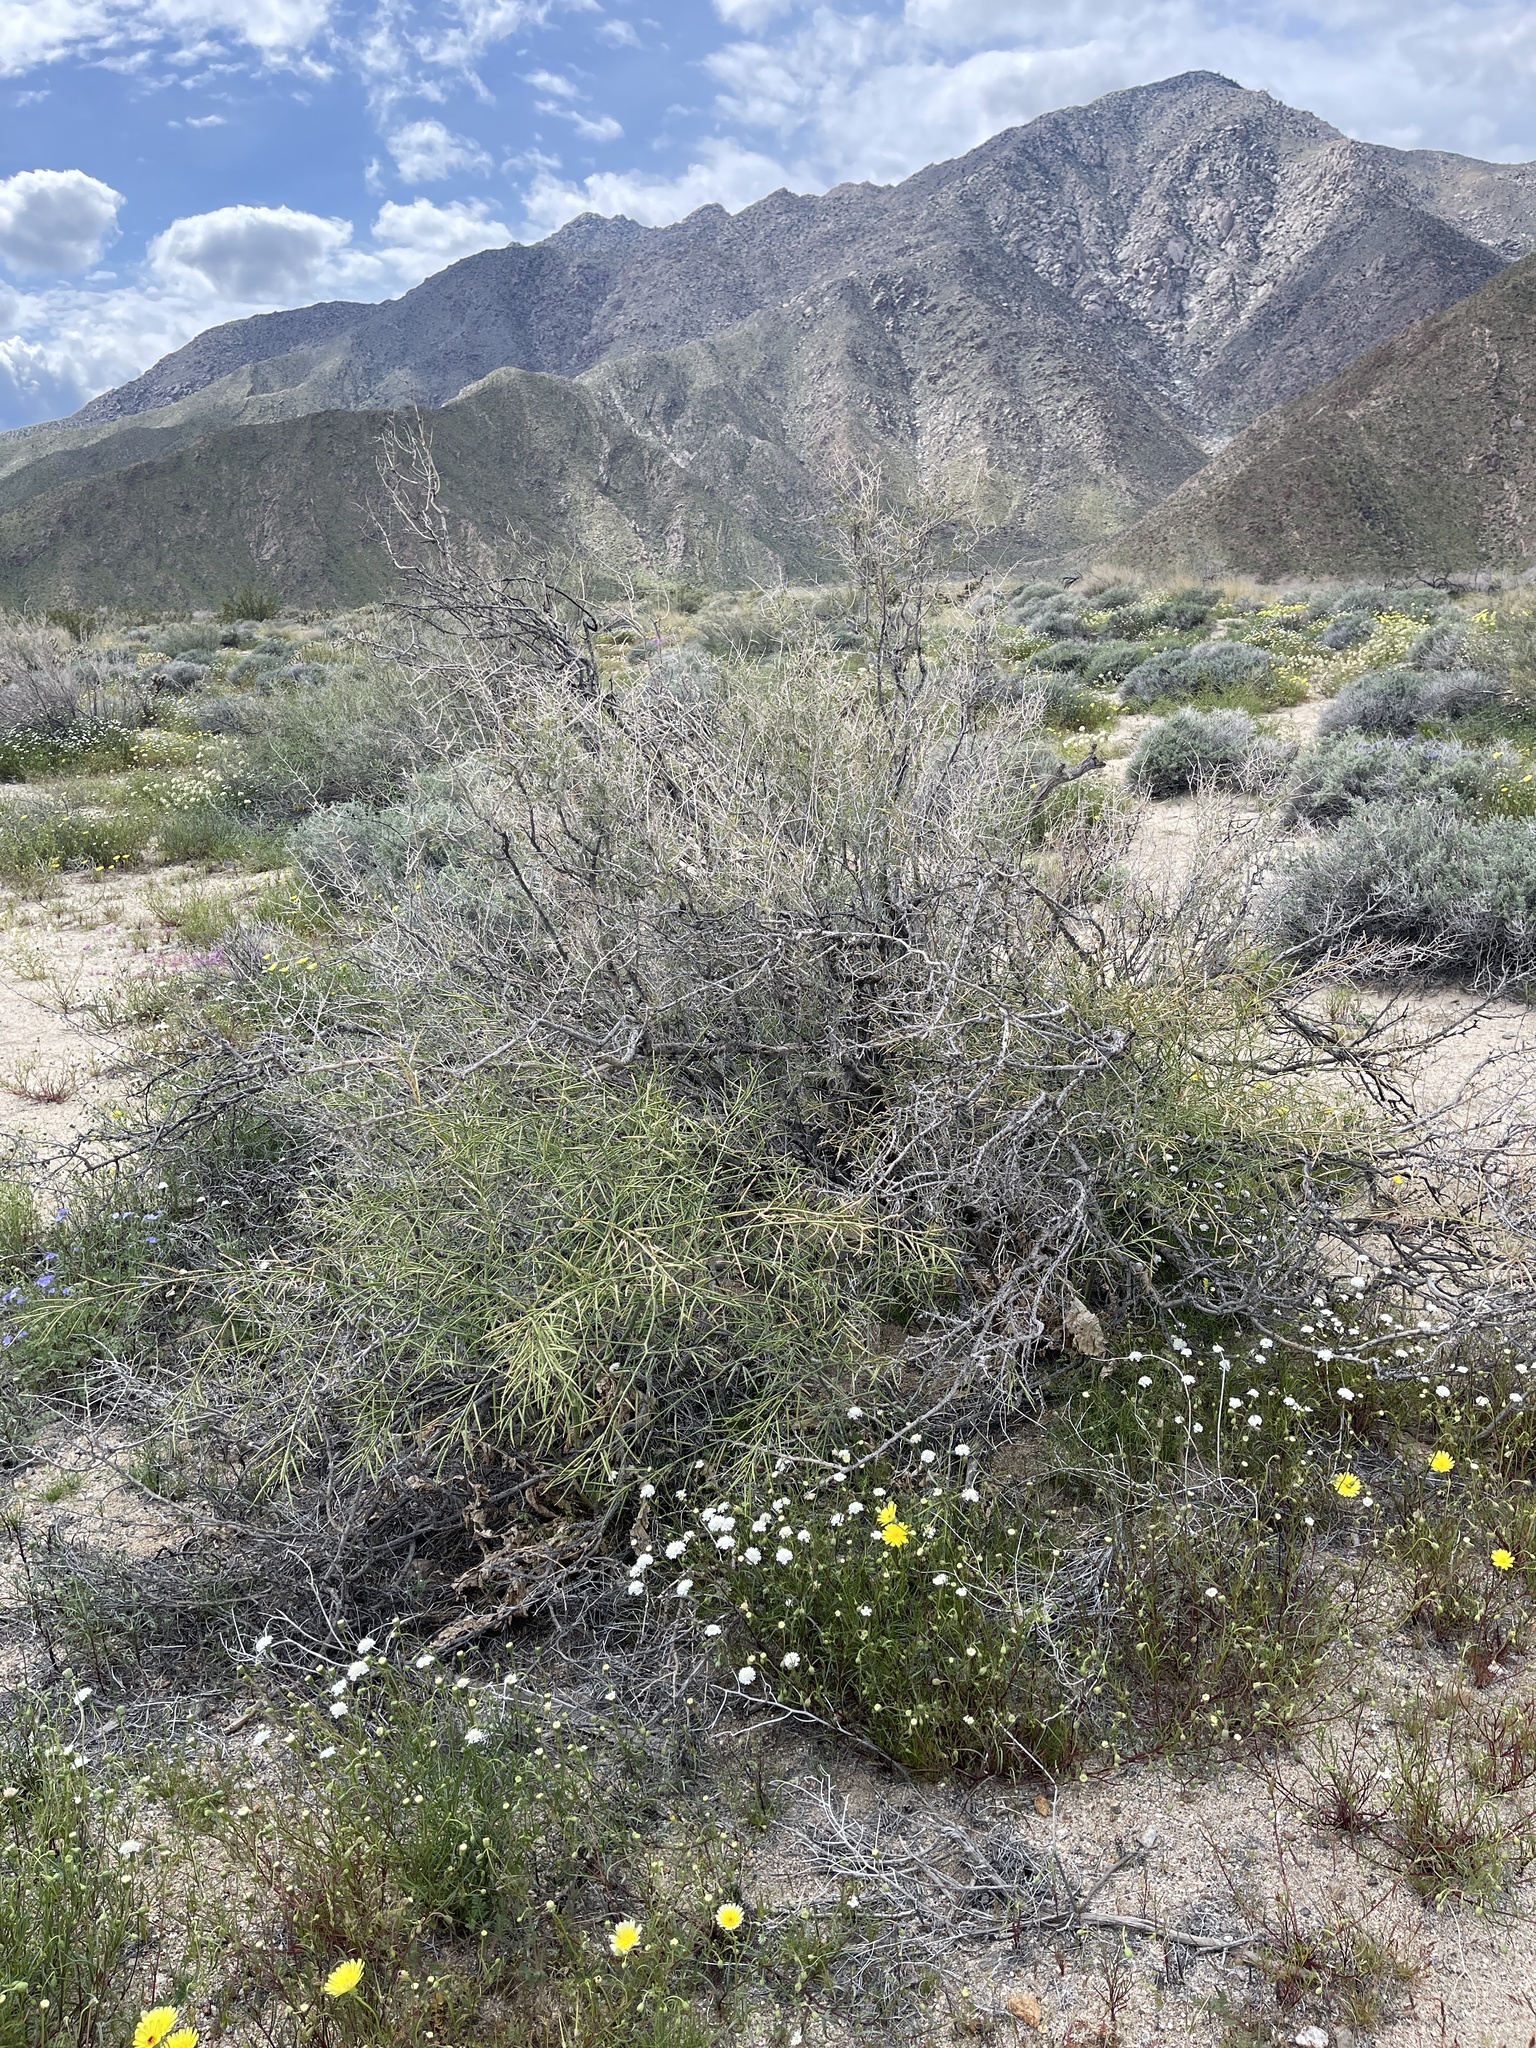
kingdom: Plantae
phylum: Tracheophyta
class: Magnoliopsida
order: Brassicales
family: Brassicaceae
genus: Brassica
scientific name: Brassica tournefortii
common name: Pale cabbage
